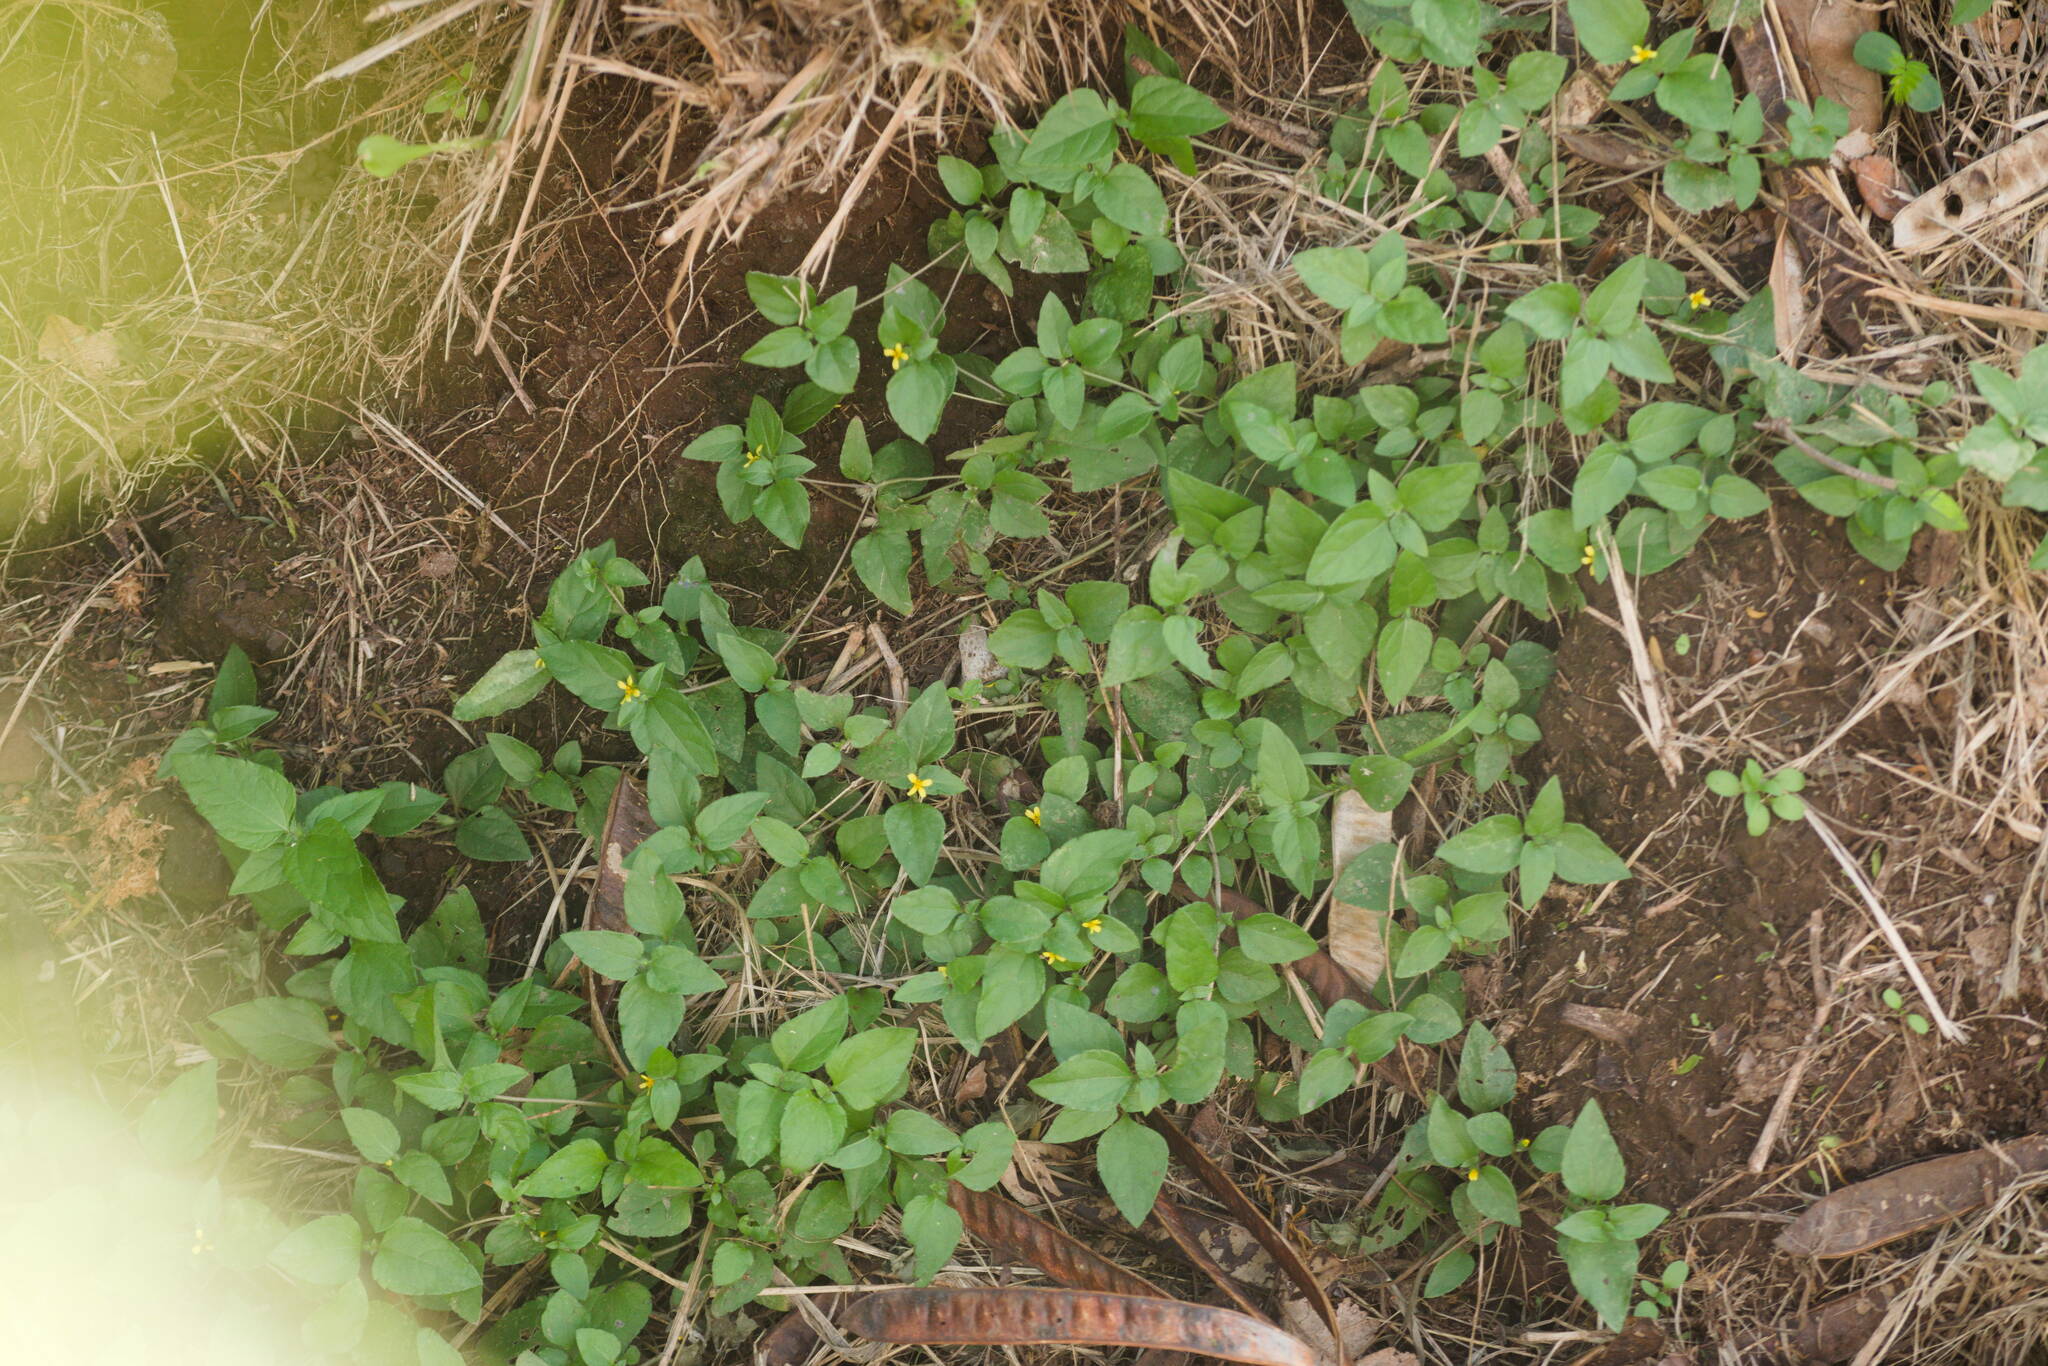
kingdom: Plantae
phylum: Tracheophyta
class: Magnoliopsida
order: Asterales
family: Asteraceae
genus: Calyptocarpus
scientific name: Calyptocarpus vialis
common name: Straggler daisy
